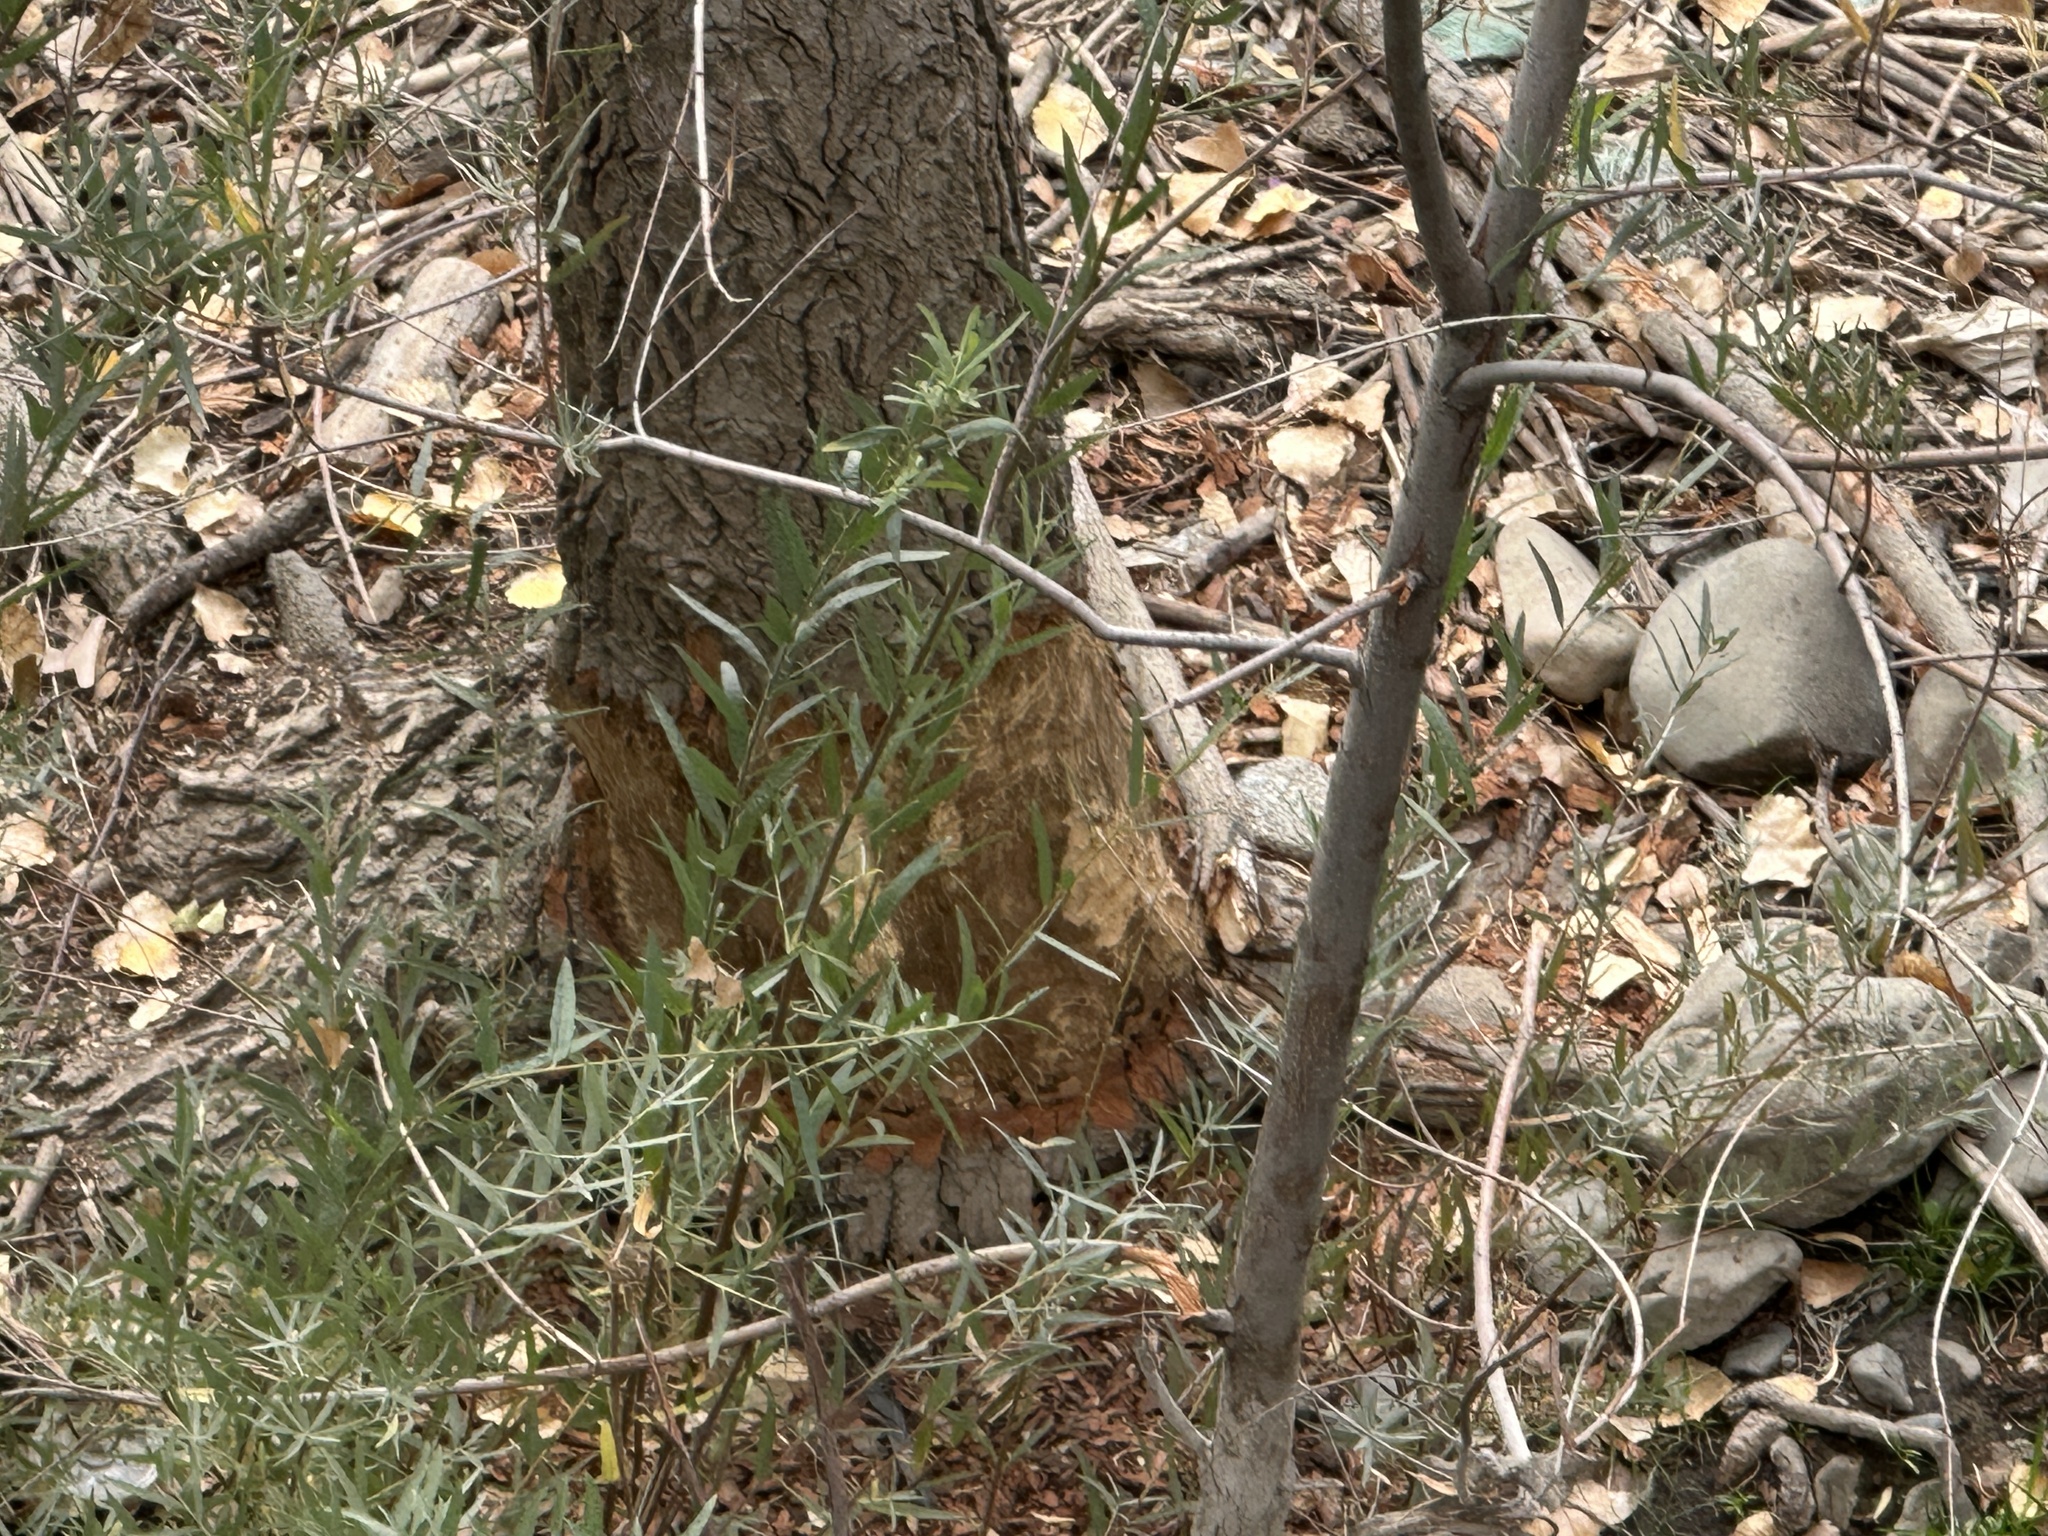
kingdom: Animalia
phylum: Chordata
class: Mammalia
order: Rodentia
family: Castoridae
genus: Castor
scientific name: Castor canadensis
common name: American beaver
